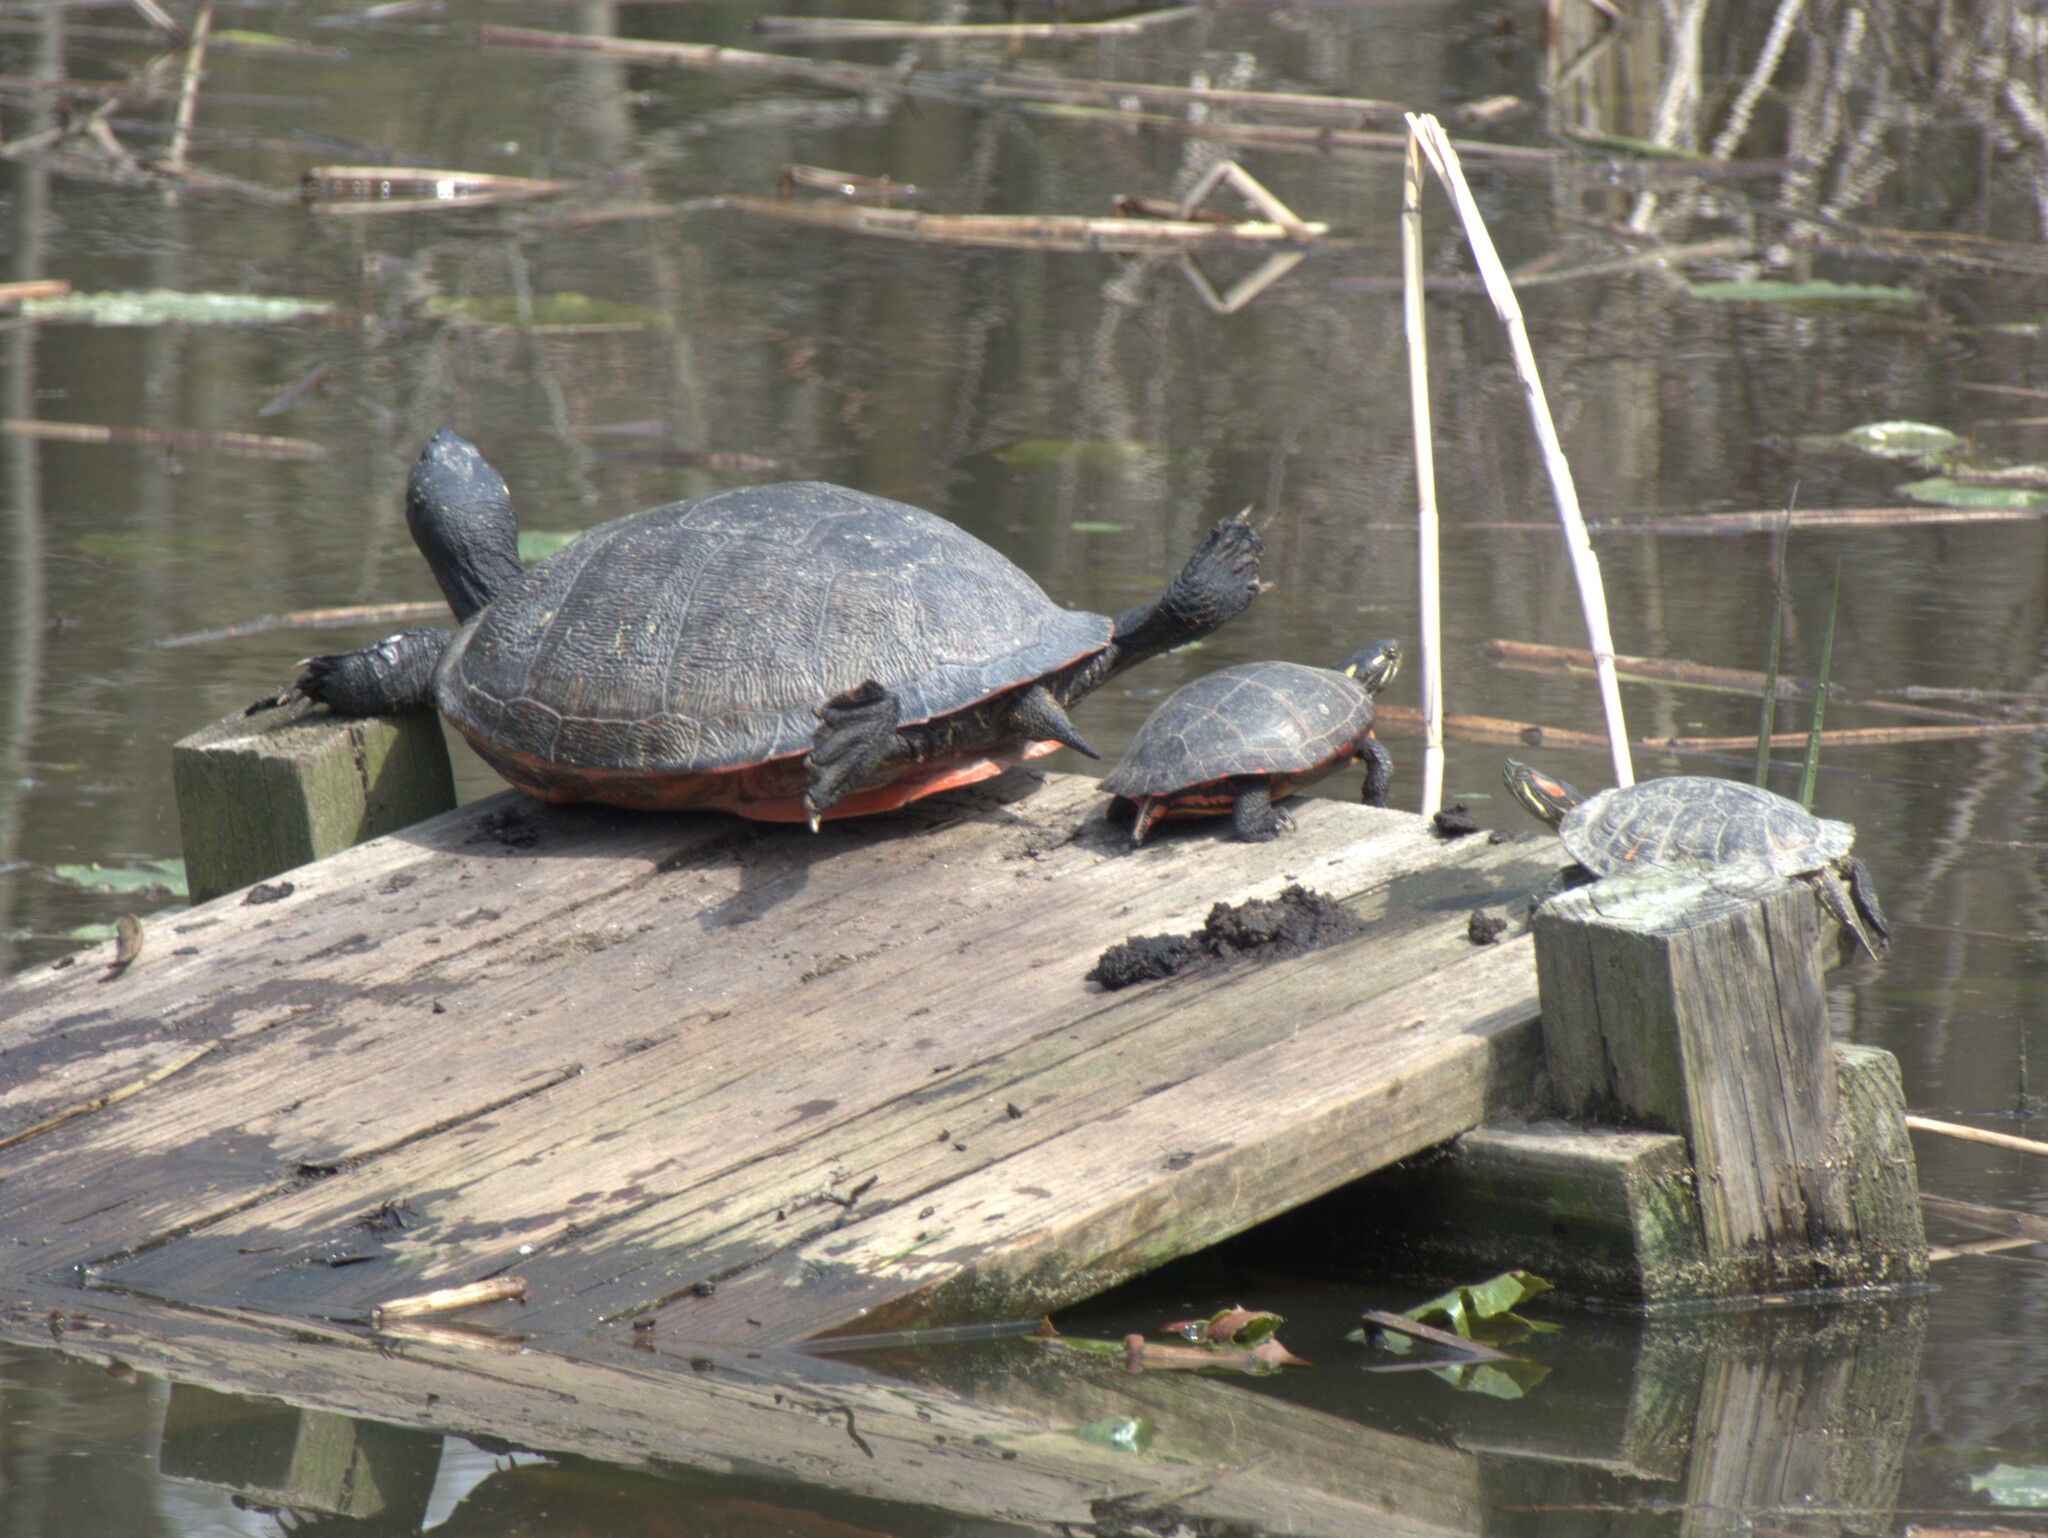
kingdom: Animalia
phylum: Chordata
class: Testudines
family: Emydidae
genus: Pseudemys
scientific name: Pseudemys rubriventris
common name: American red-bellied turtle
